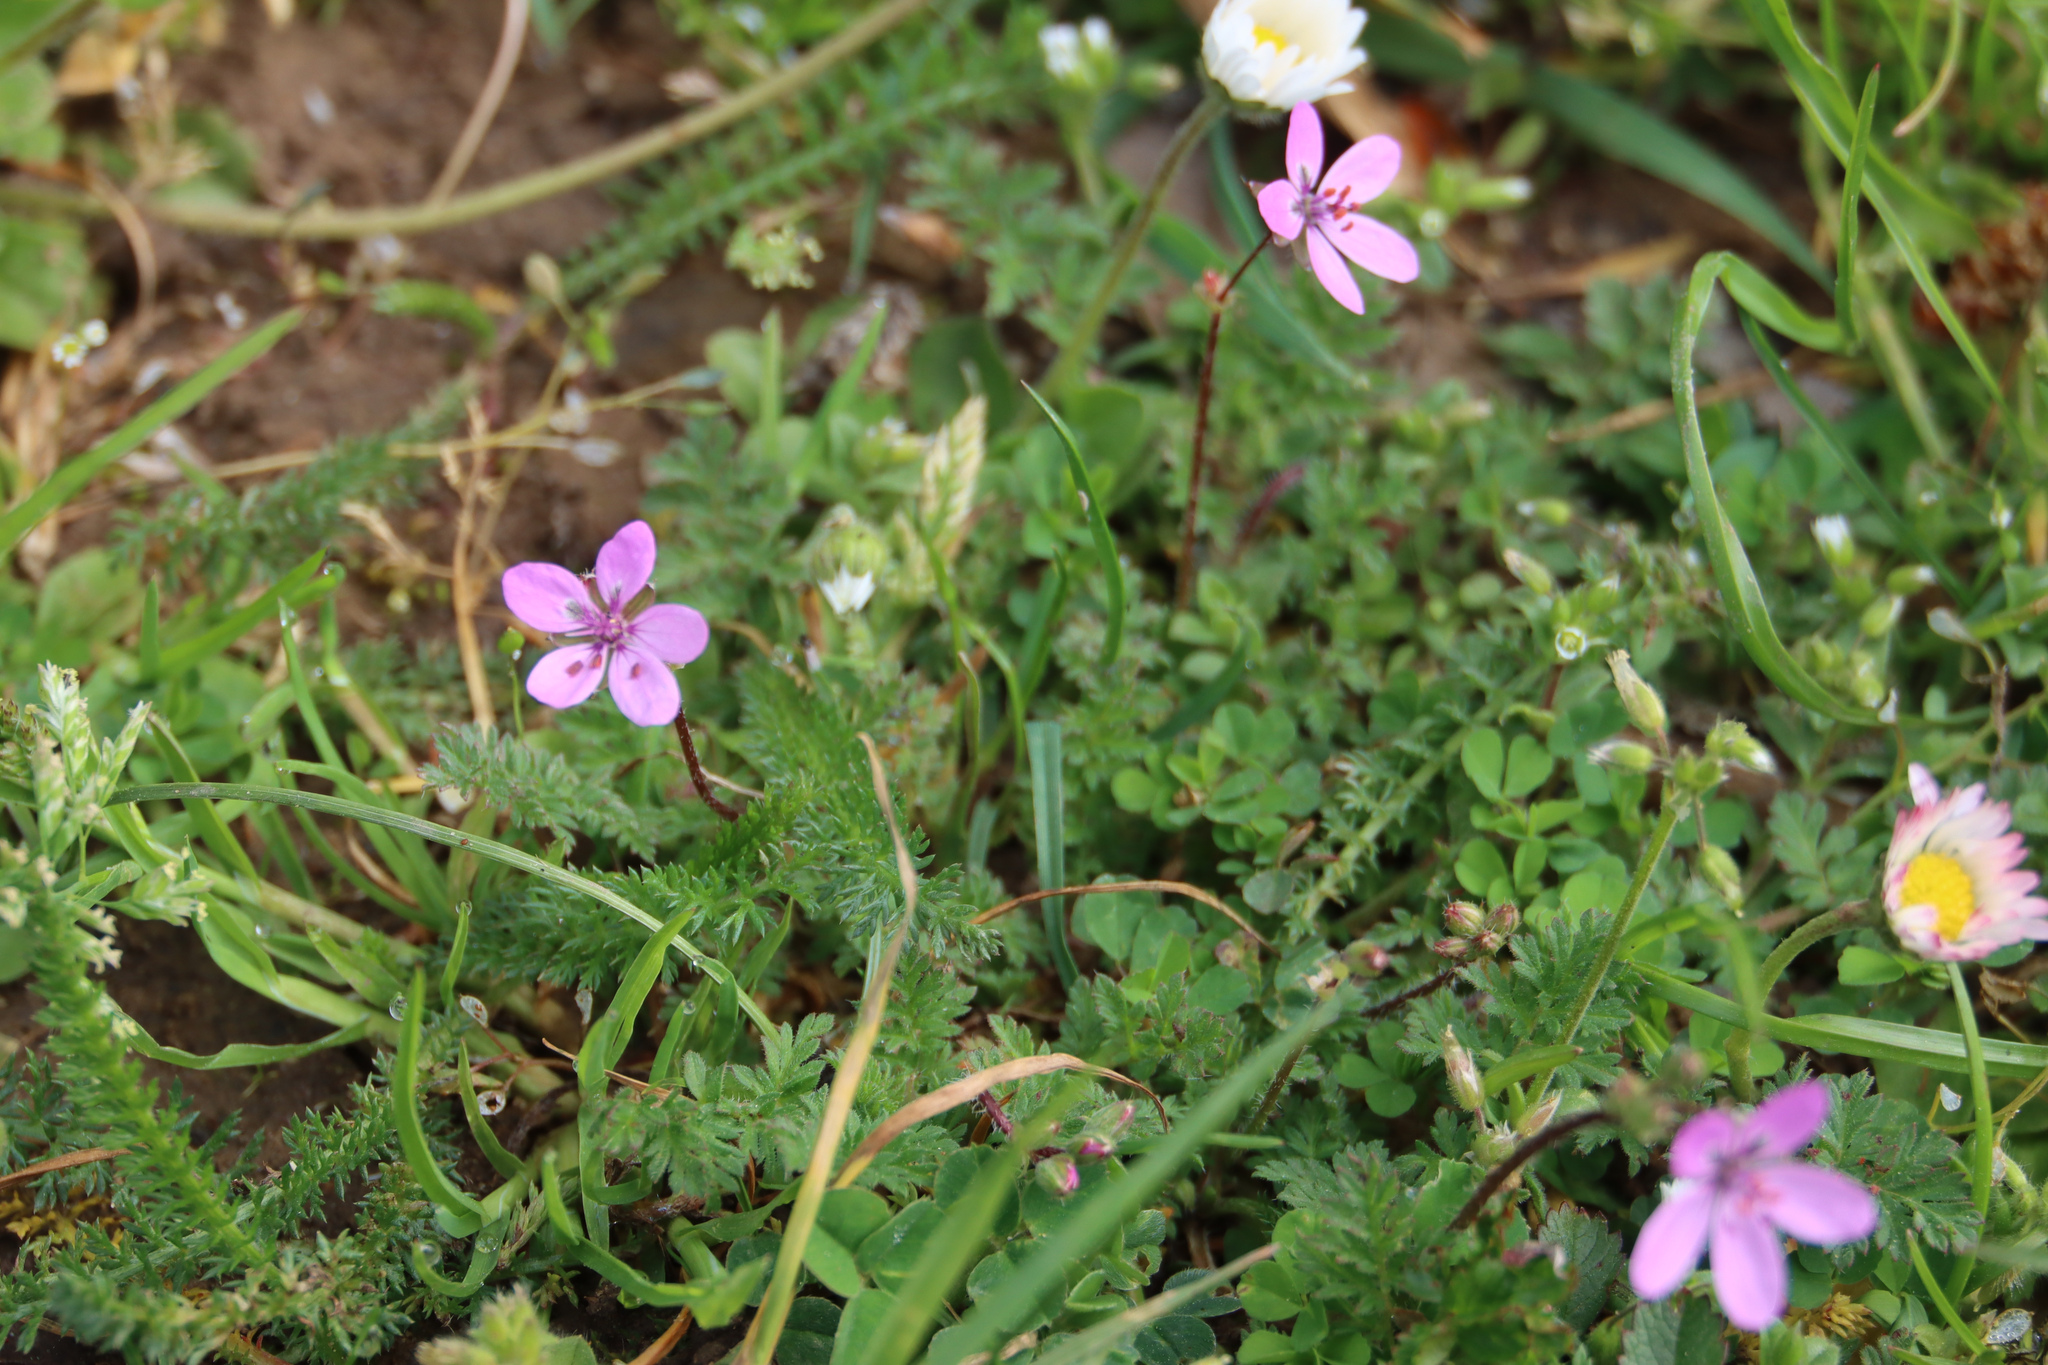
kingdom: Plantae
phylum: Tracheophyta
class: Magnoliopsida
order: Geraniales
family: Geraniaceae
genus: Erodium
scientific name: Erodium cicutarium
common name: Common stork's-bill
